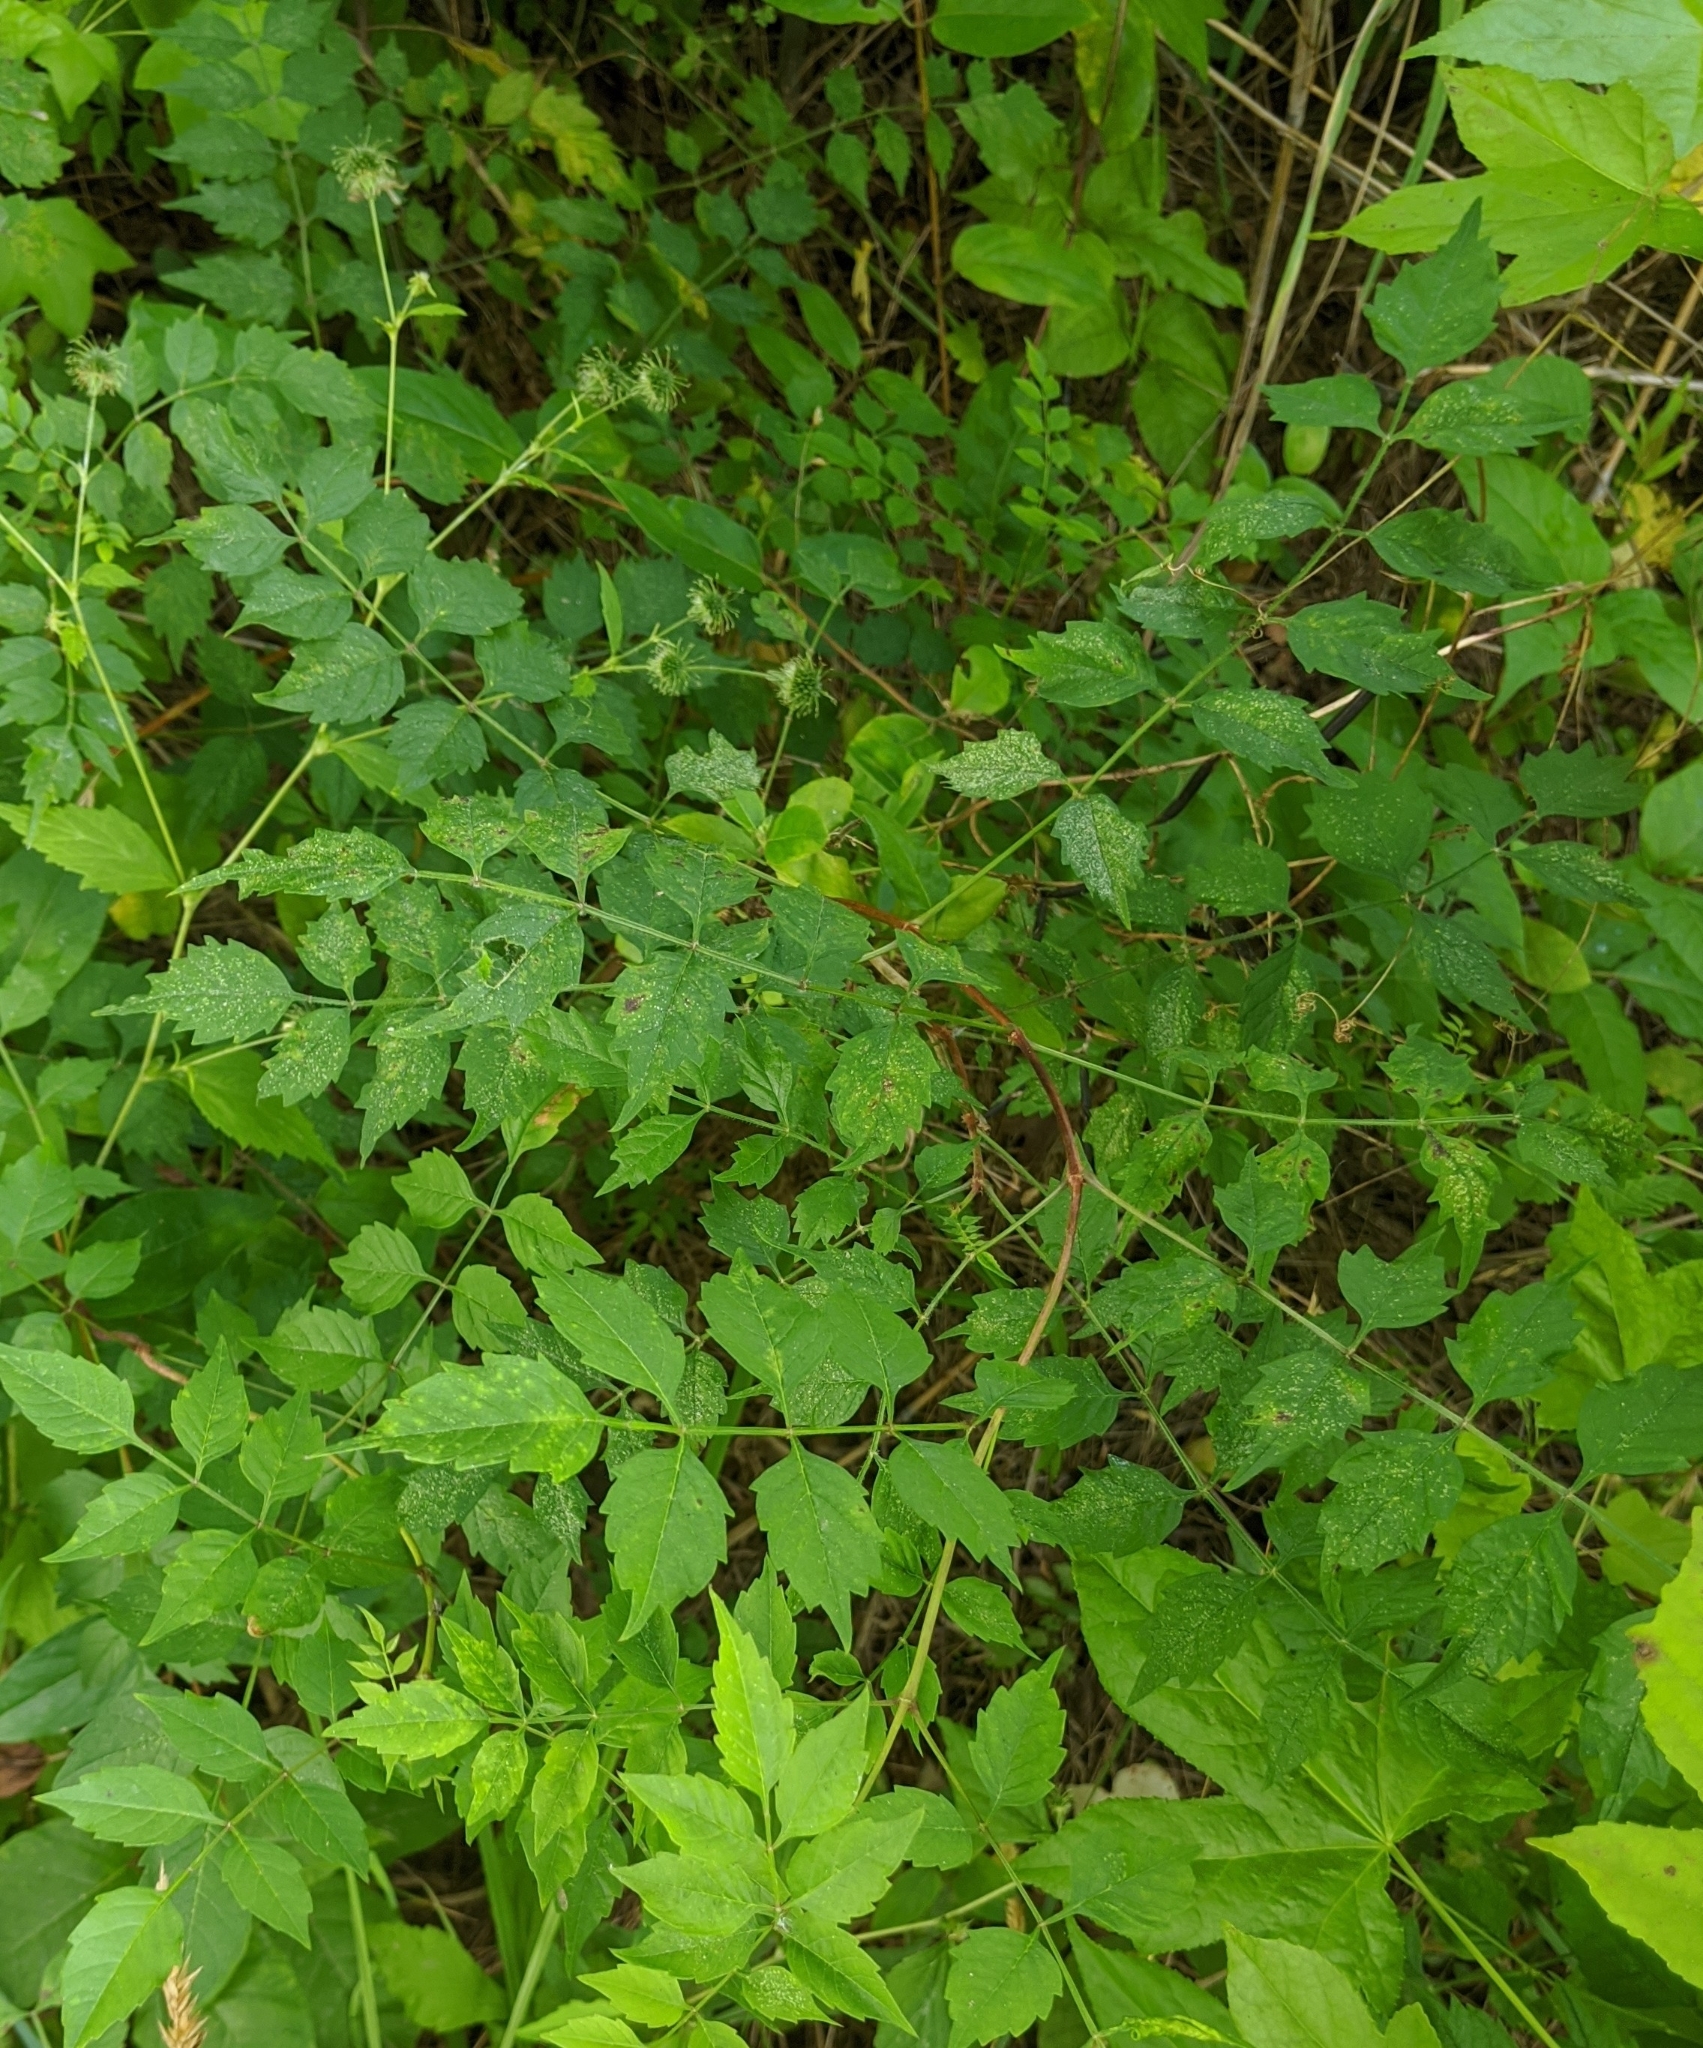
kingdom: Plantae
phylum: Tracheophyta
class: Magnoliopsida
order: Lamiales
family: Bignoniaceae
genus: Campsis
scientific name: Campsis radicans
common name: Trumpet-creeper
